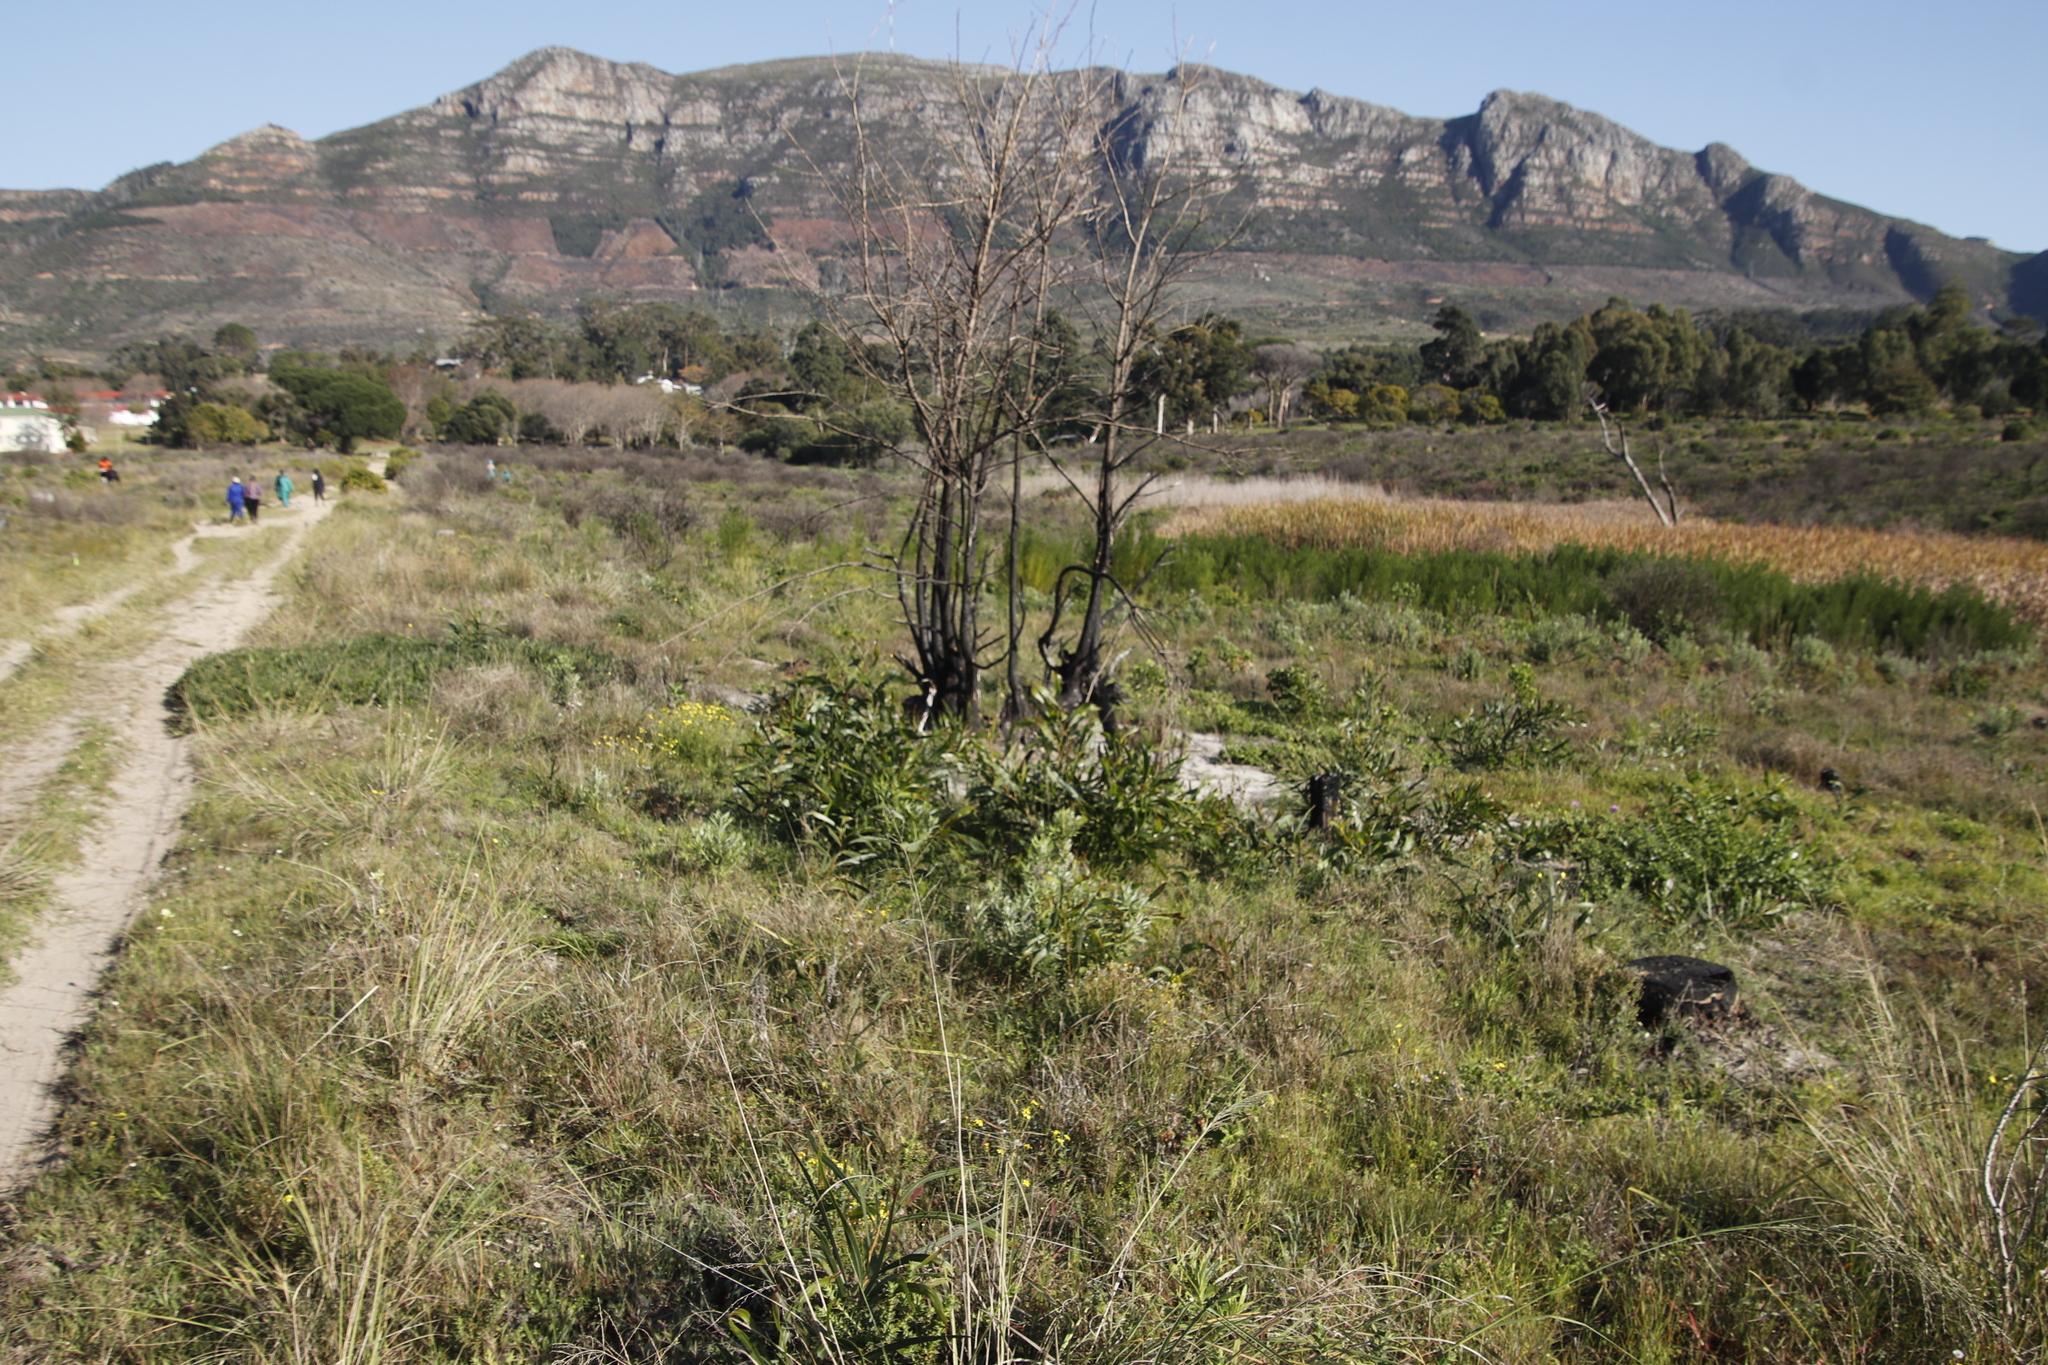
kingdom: Plantae
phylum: Tracheophyta
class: Magnoliopsida
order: Fabales
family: Fabaceae
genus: Acacia
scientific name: Acacia saligna
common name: Orange wattle
